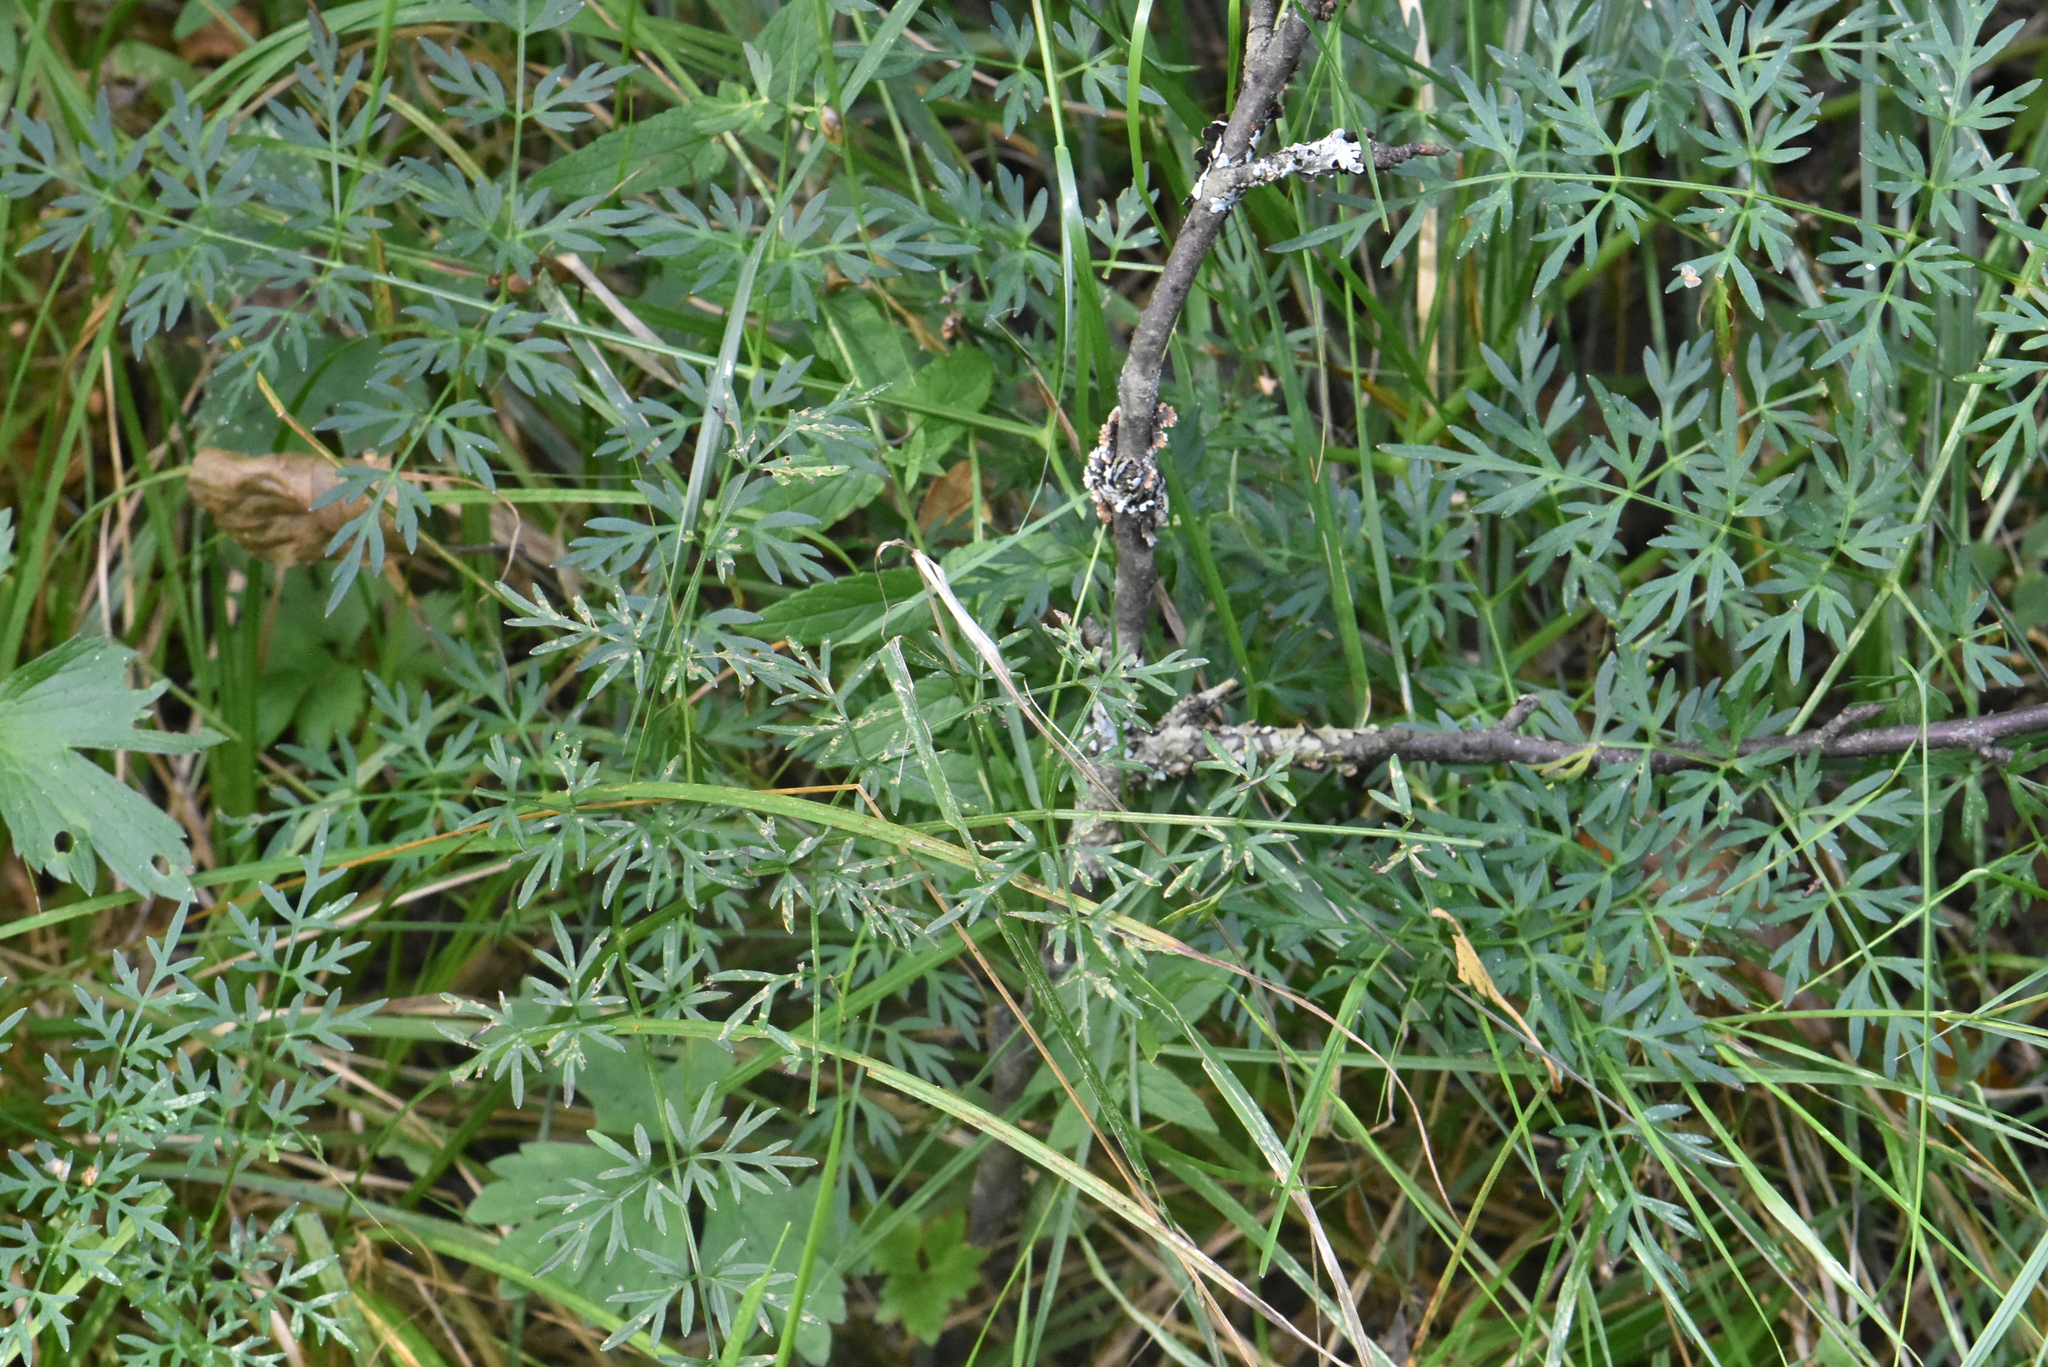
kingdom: Plantae
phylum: Tracheophyta
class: Magnoliopsida
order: Apiales
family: Apiaceae
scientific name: Apiaceae
